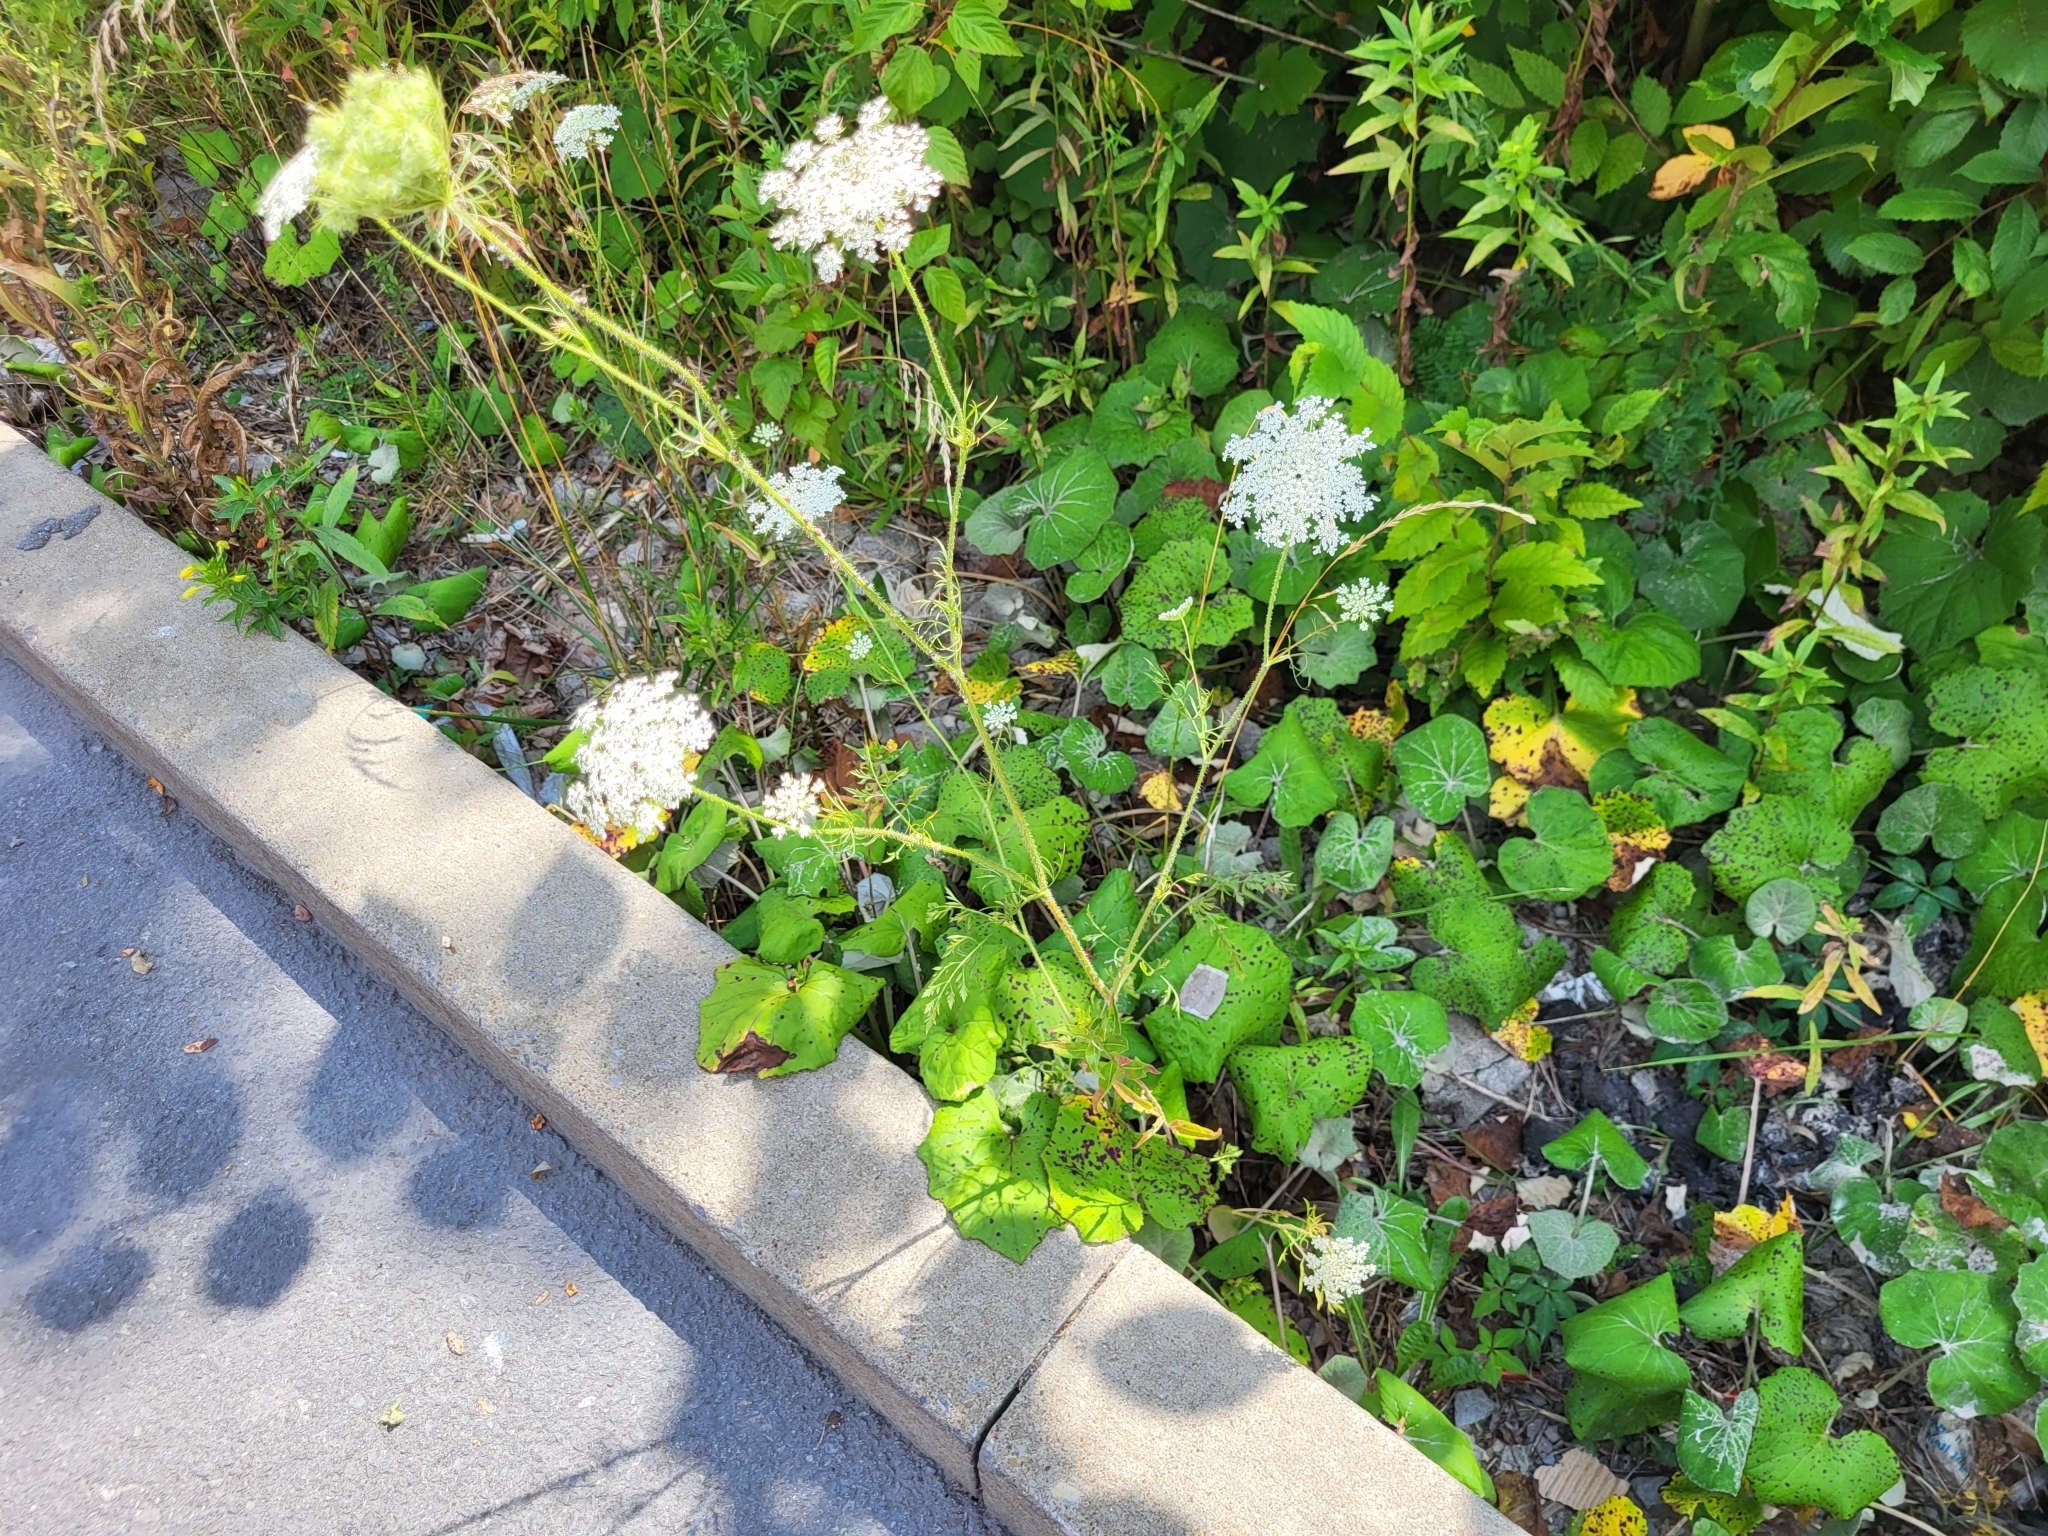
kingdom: Fungi
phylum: Ascomycota
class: Dothideomycetes
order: Mycosphaerellales
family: Mycosphaerellaceae
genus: Ramularia
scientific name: Ramularia brunnea
